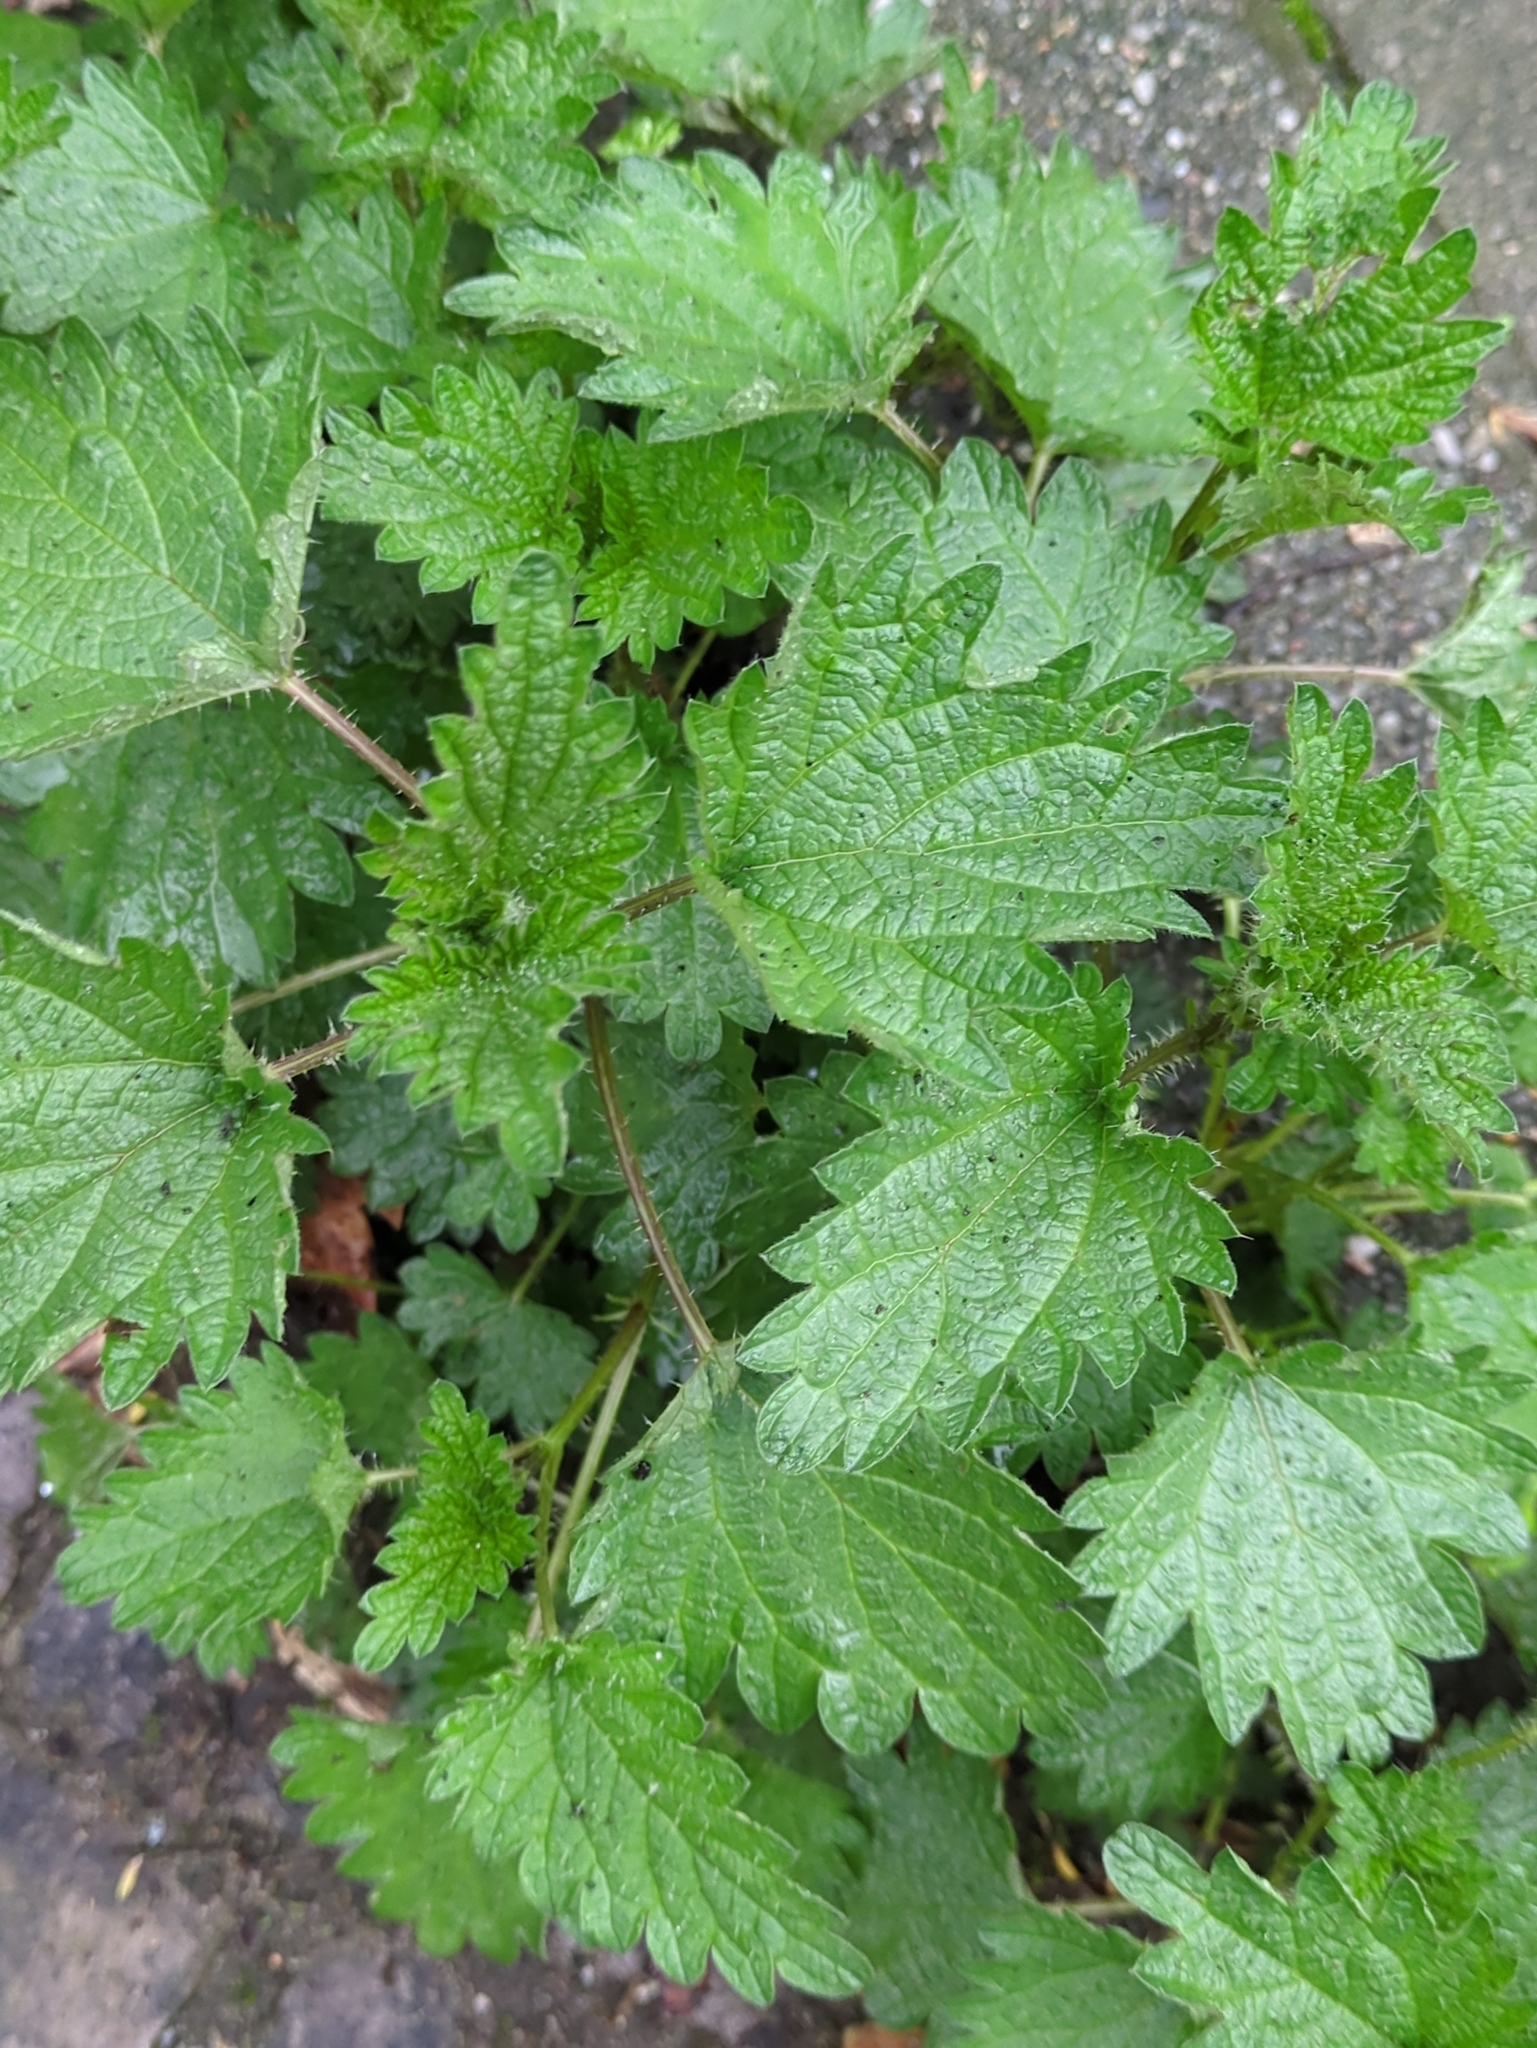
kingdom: Plantae
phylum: Tracheophyta
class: Magnoliopsida
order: Rosales
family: Urticaceae
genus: Urtica
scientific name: Urtica dioica
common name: Common nettle
